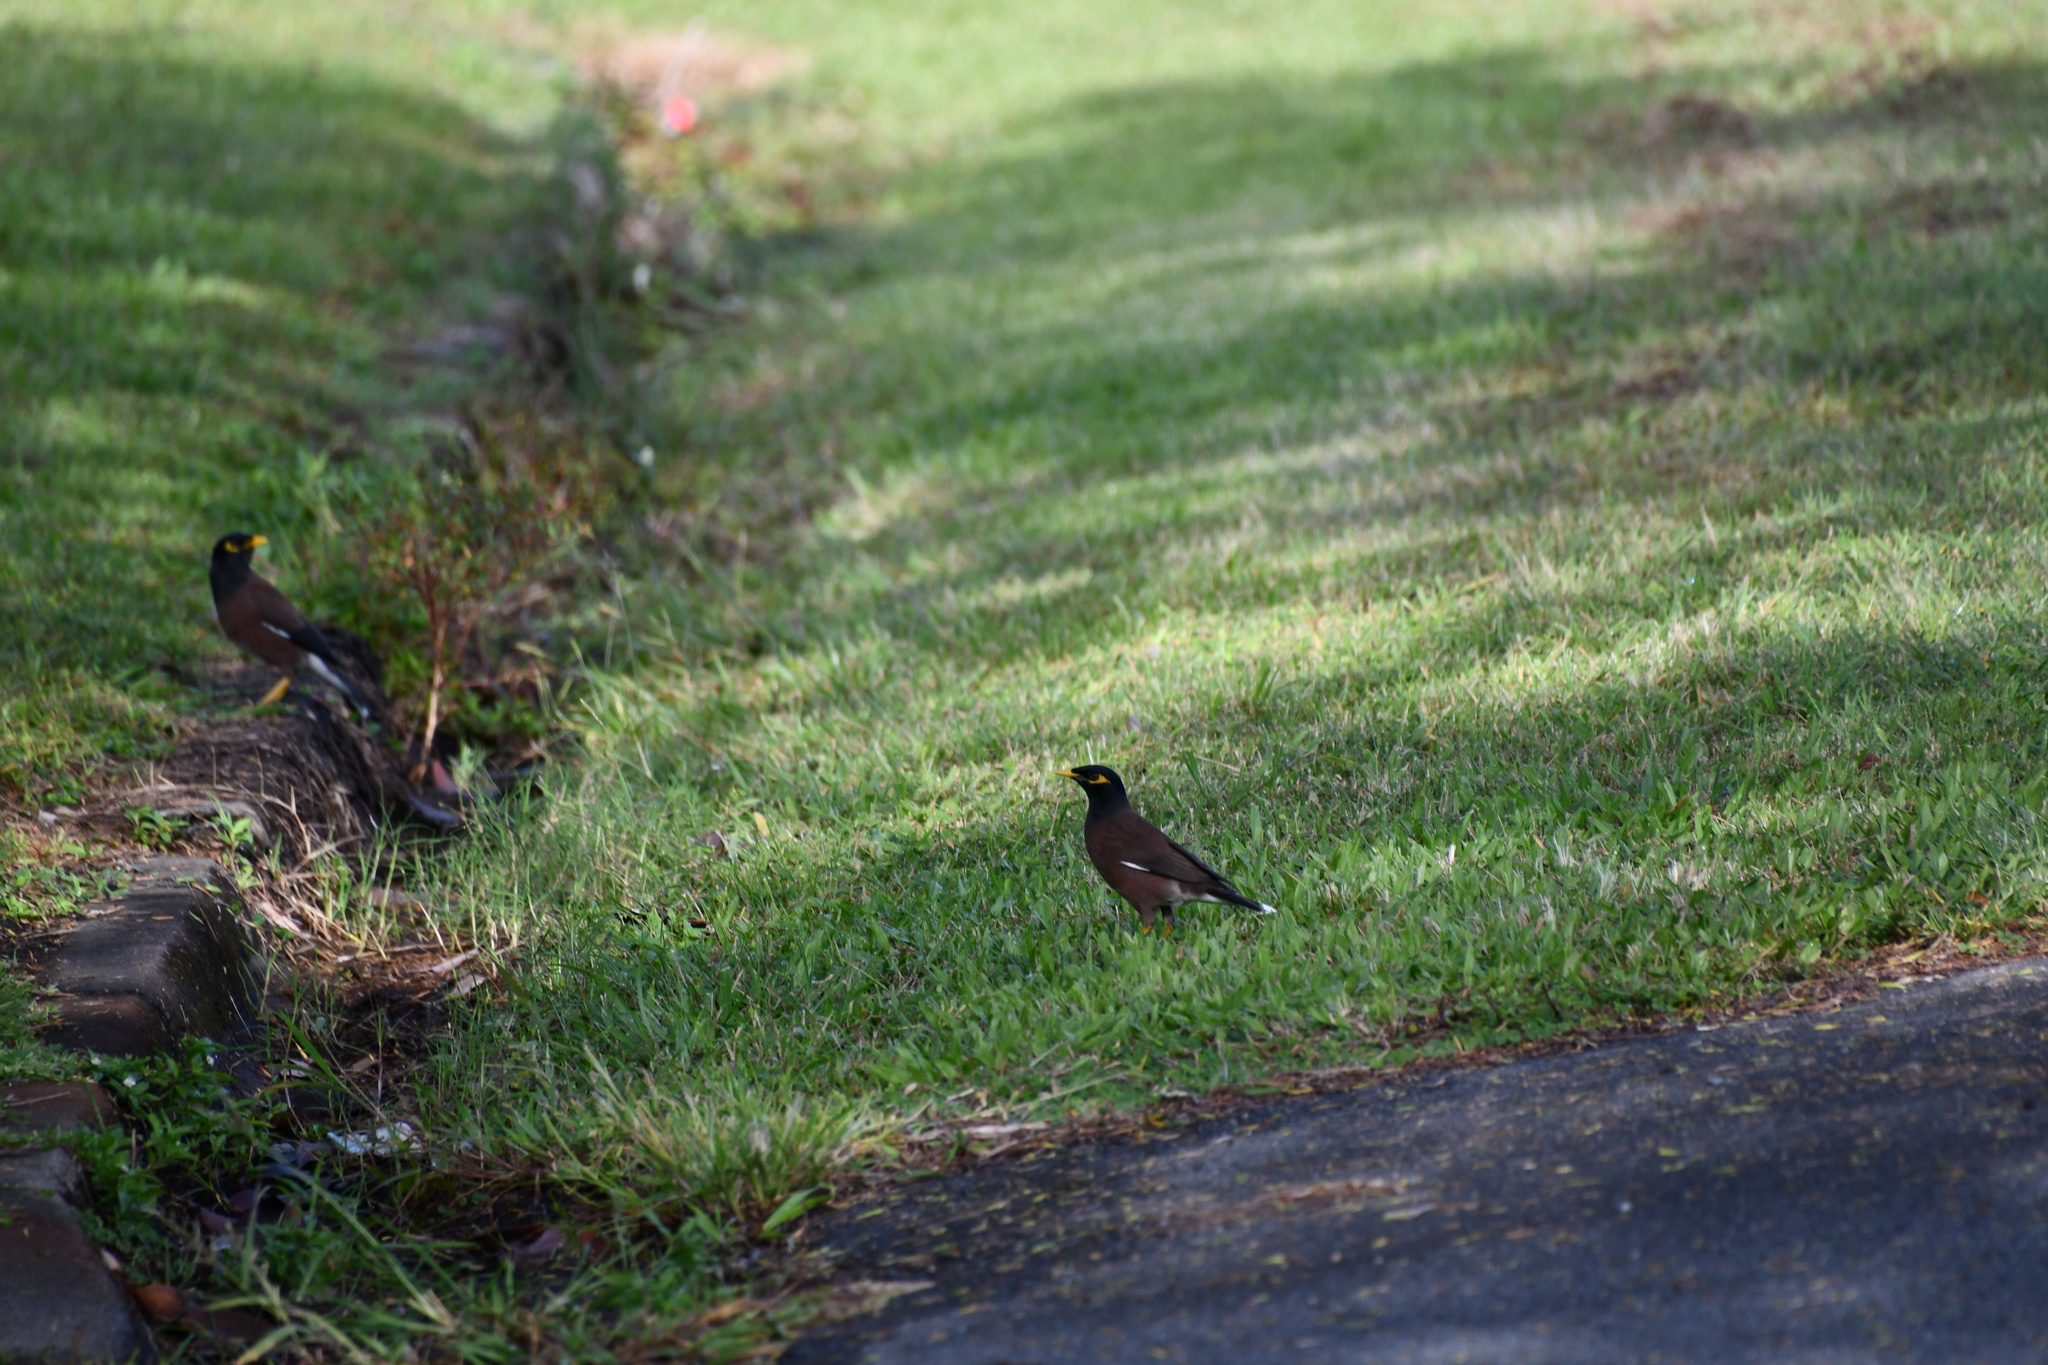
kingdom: Animalia
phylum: Chordata
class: Aves
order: Passeriformes
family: Sturnidae
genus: Acridotheres
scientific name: Acridotheres tristis
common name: Common myna
